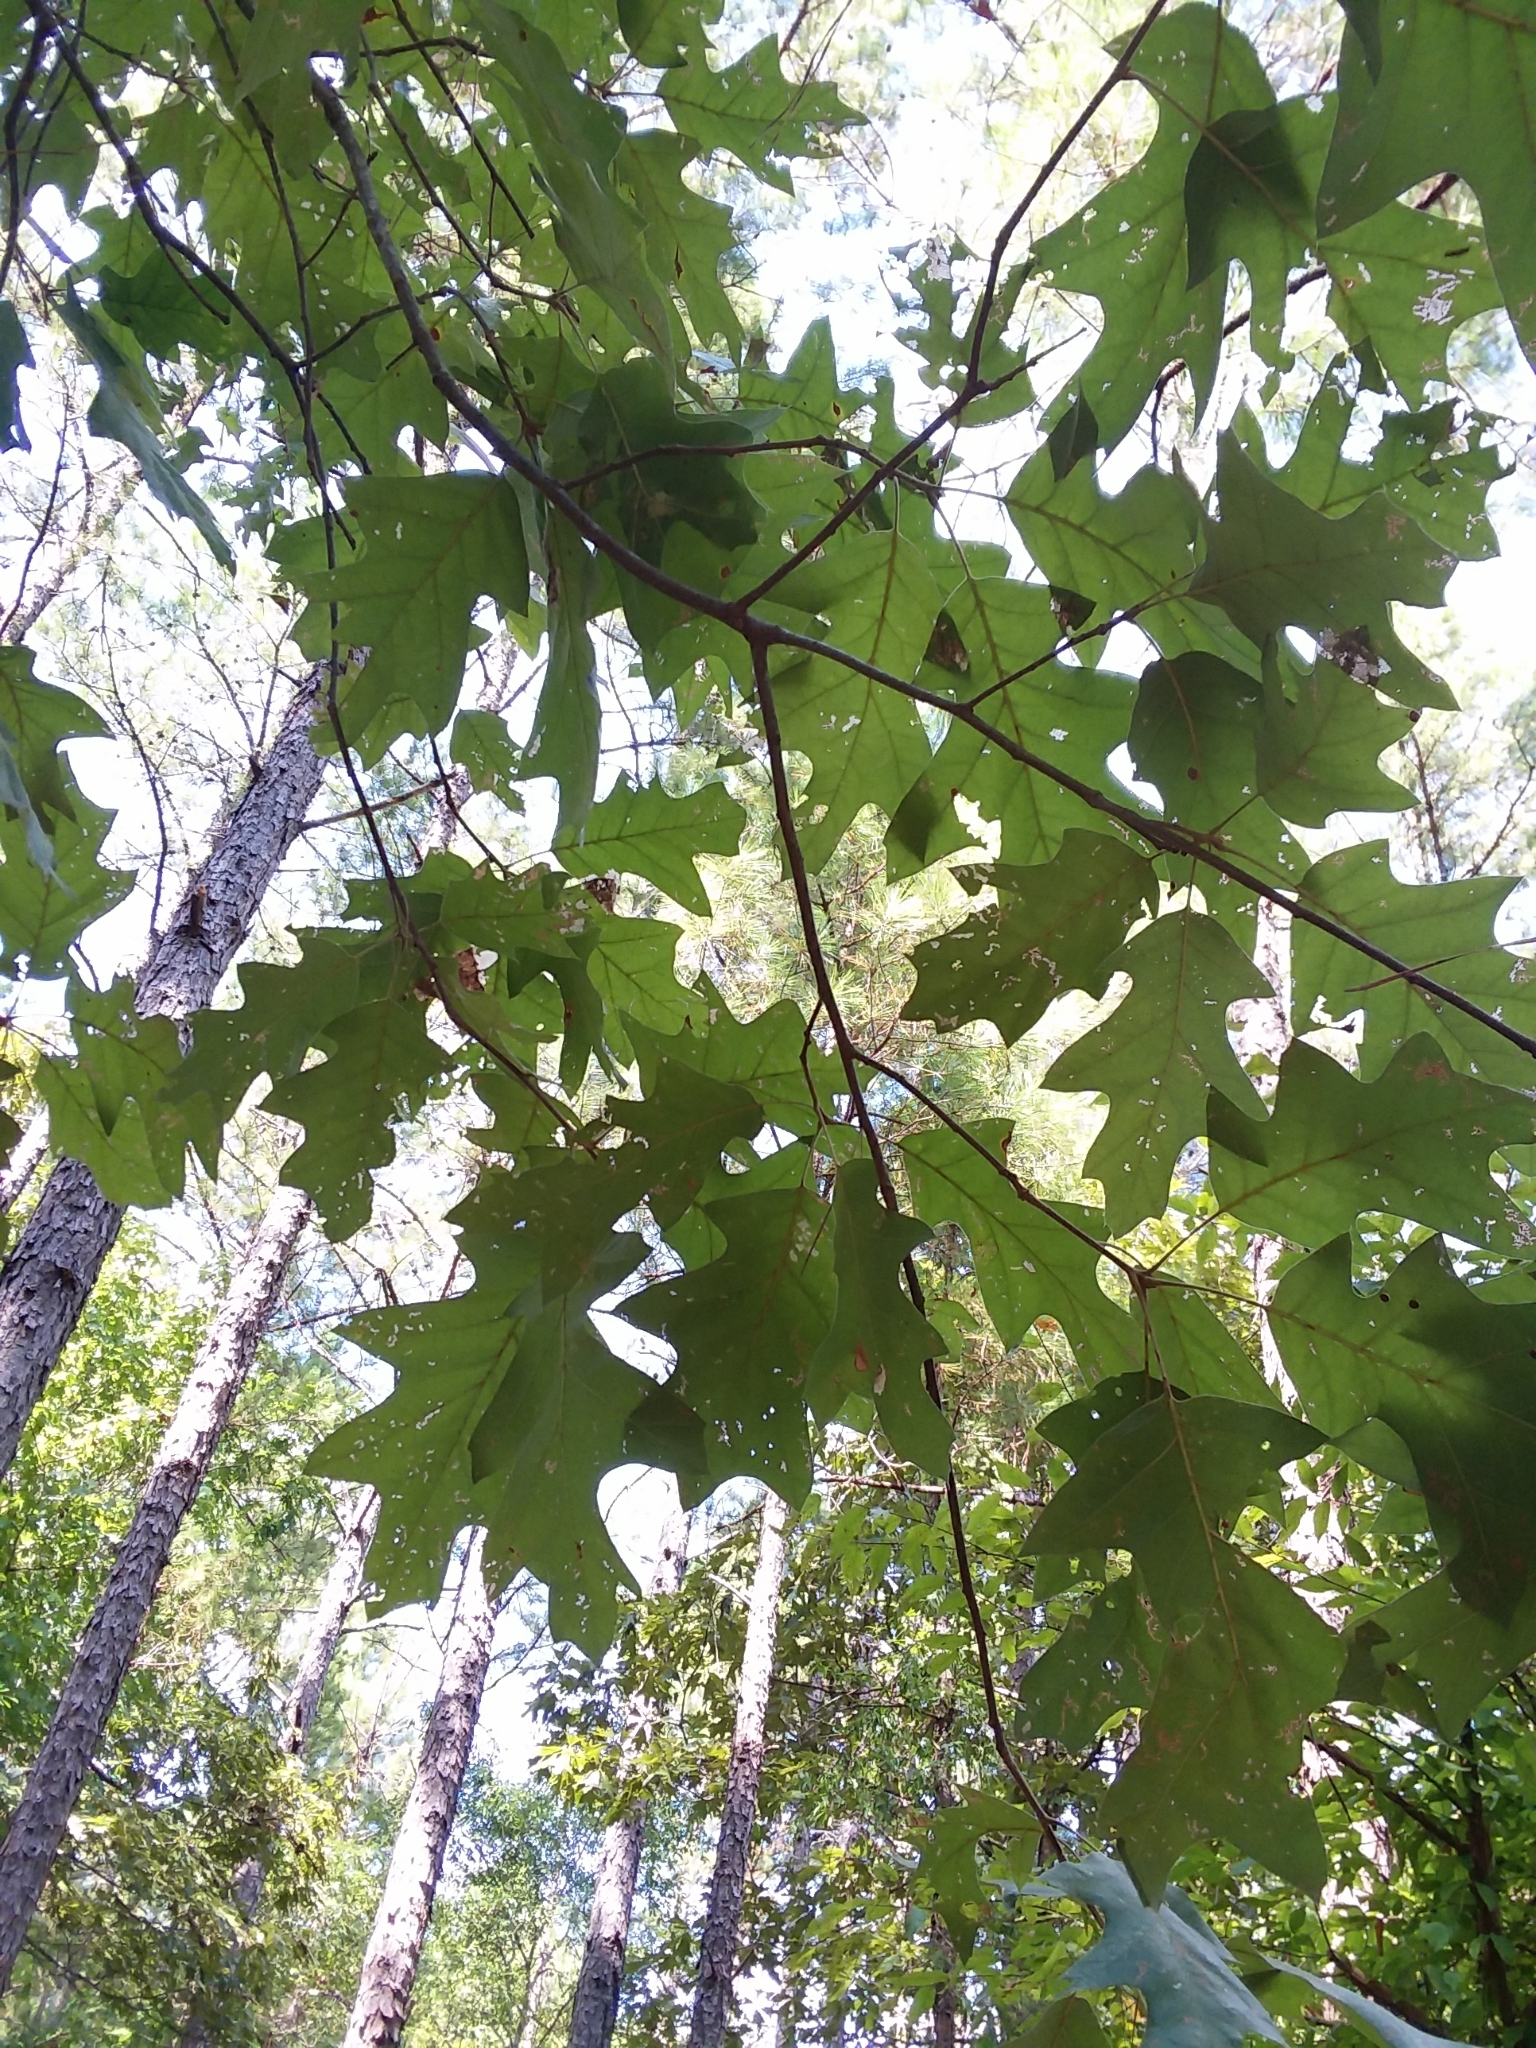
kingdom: Plantae
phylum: Tracheophyta
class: Magnoliopsida
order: Fagales
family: Fagaceae
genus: Quercus
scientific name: Quercus velutina
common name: Black oak
